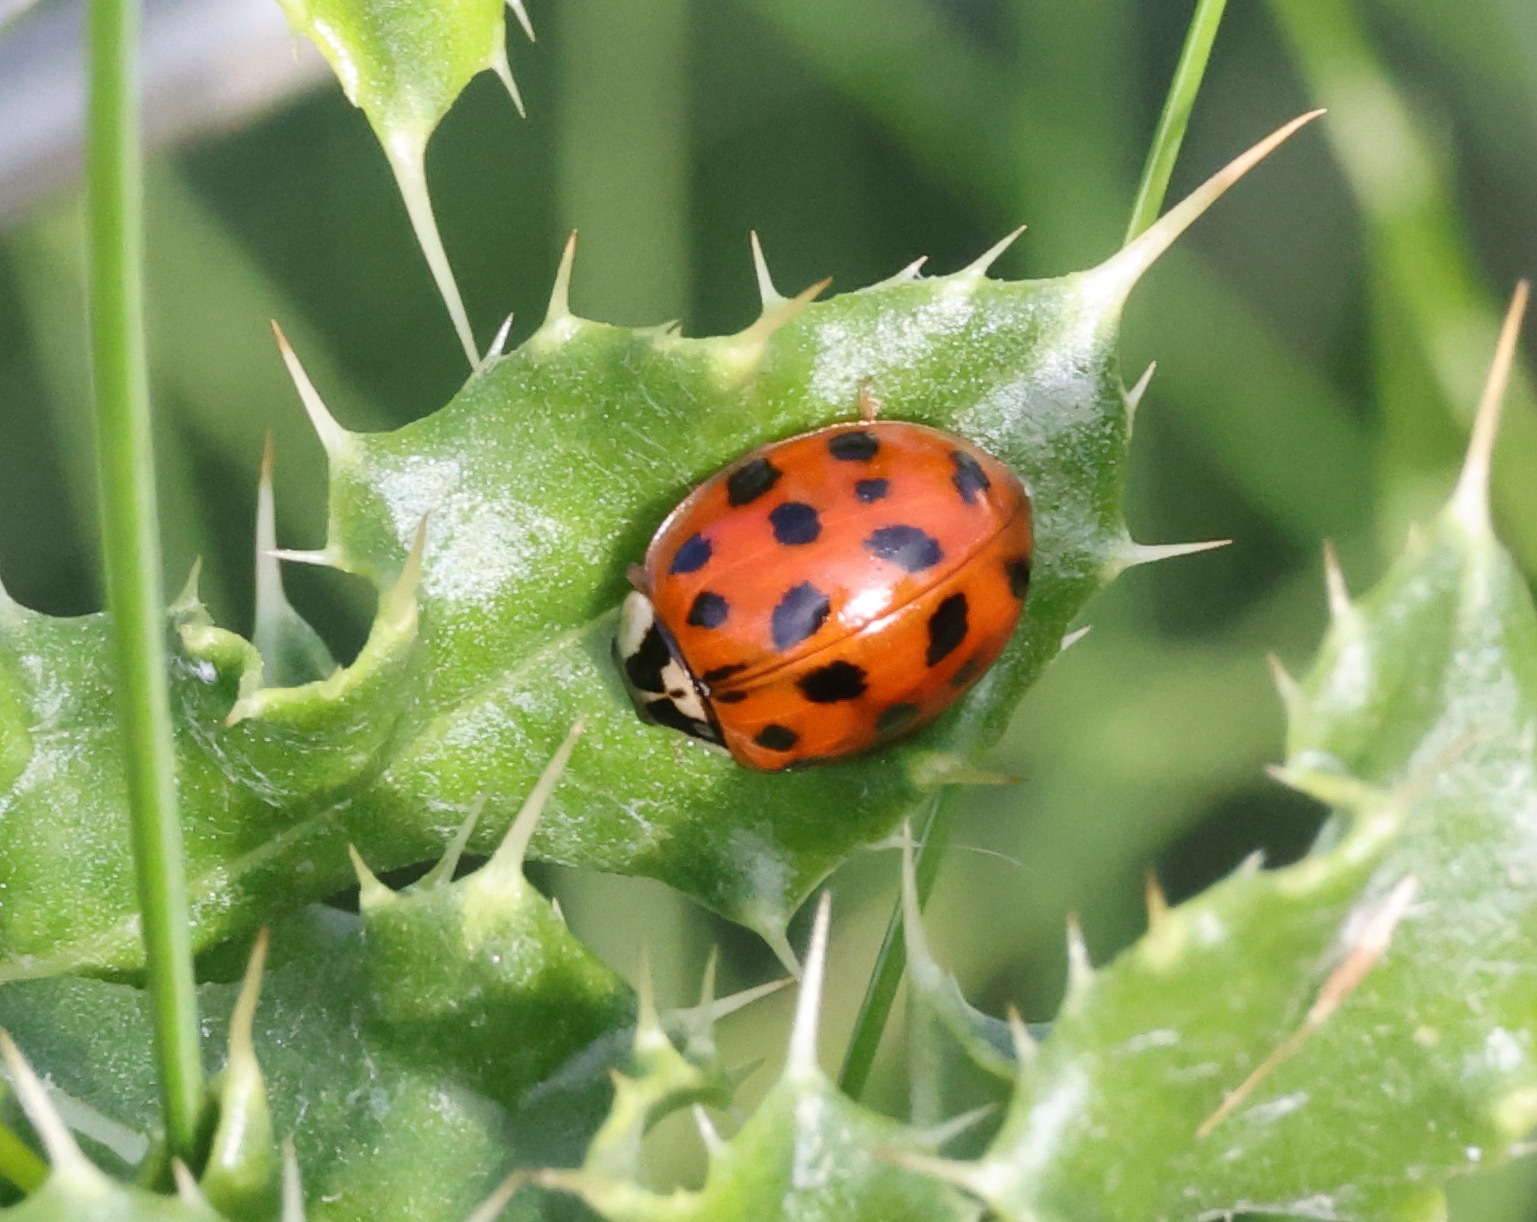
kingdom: Animalia
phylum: Arthropoda
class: Insecta
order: Coleoptera
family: Coccinellidae
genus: Harmonia
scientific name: Harmonia axyridis
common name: Harlequin ladybird
